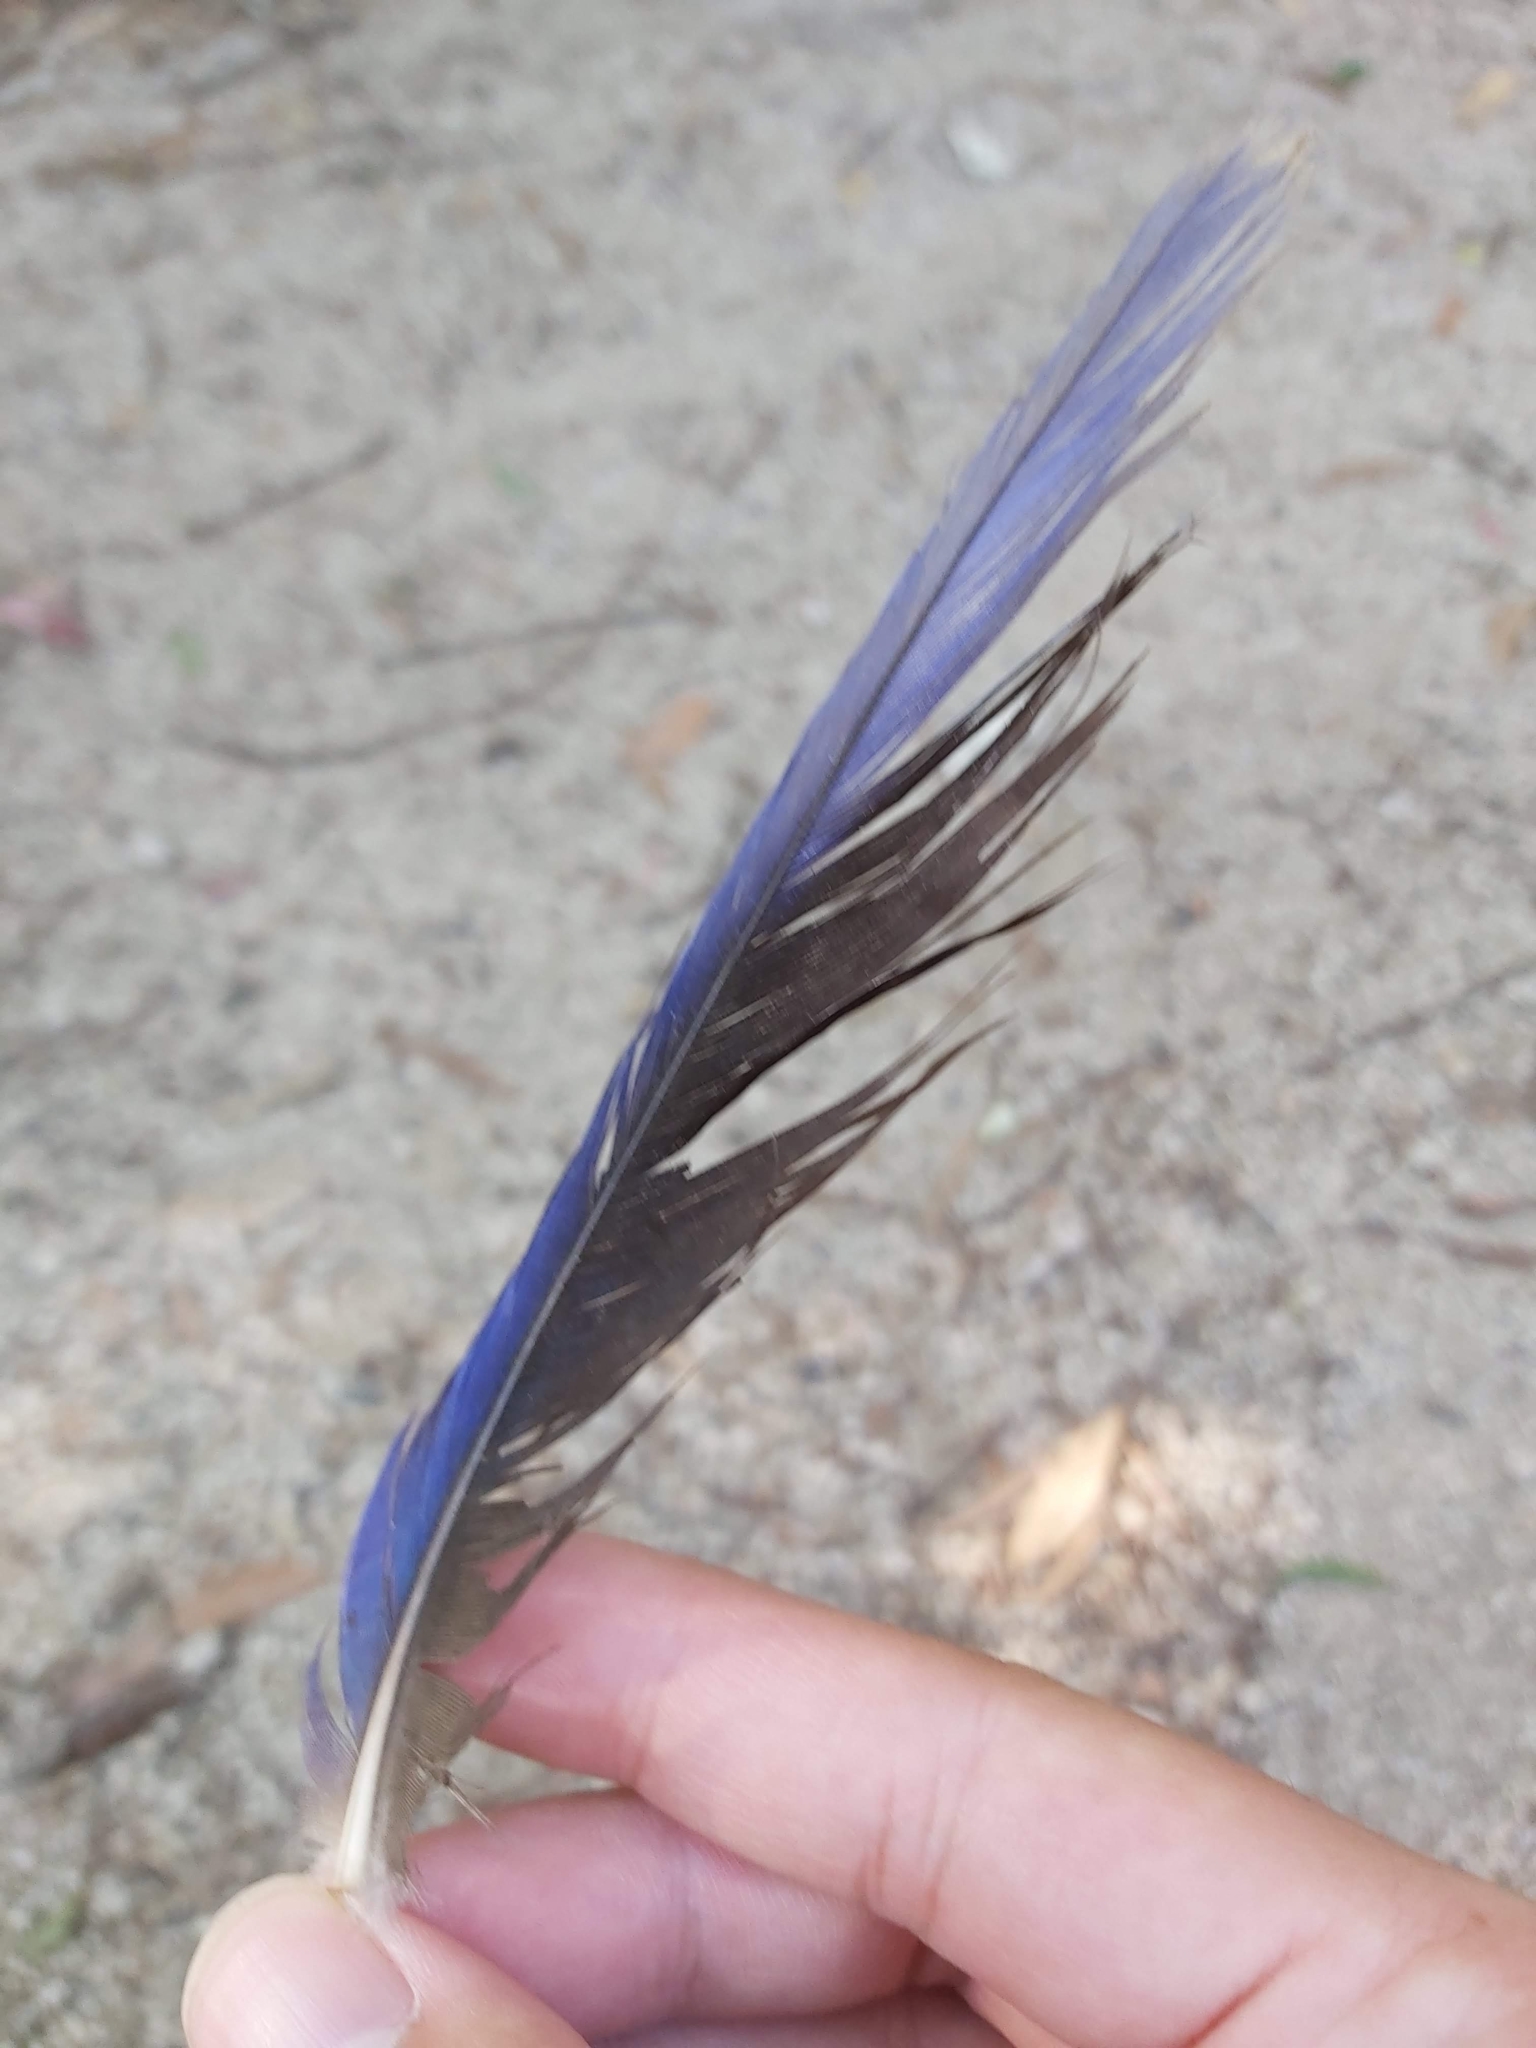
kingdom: Animalia
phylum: Chordata
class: Aves
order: Psittaciformes
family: Psittacidae
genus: Platycercus
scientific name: Platycercus elegans
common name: Crimson rosella
